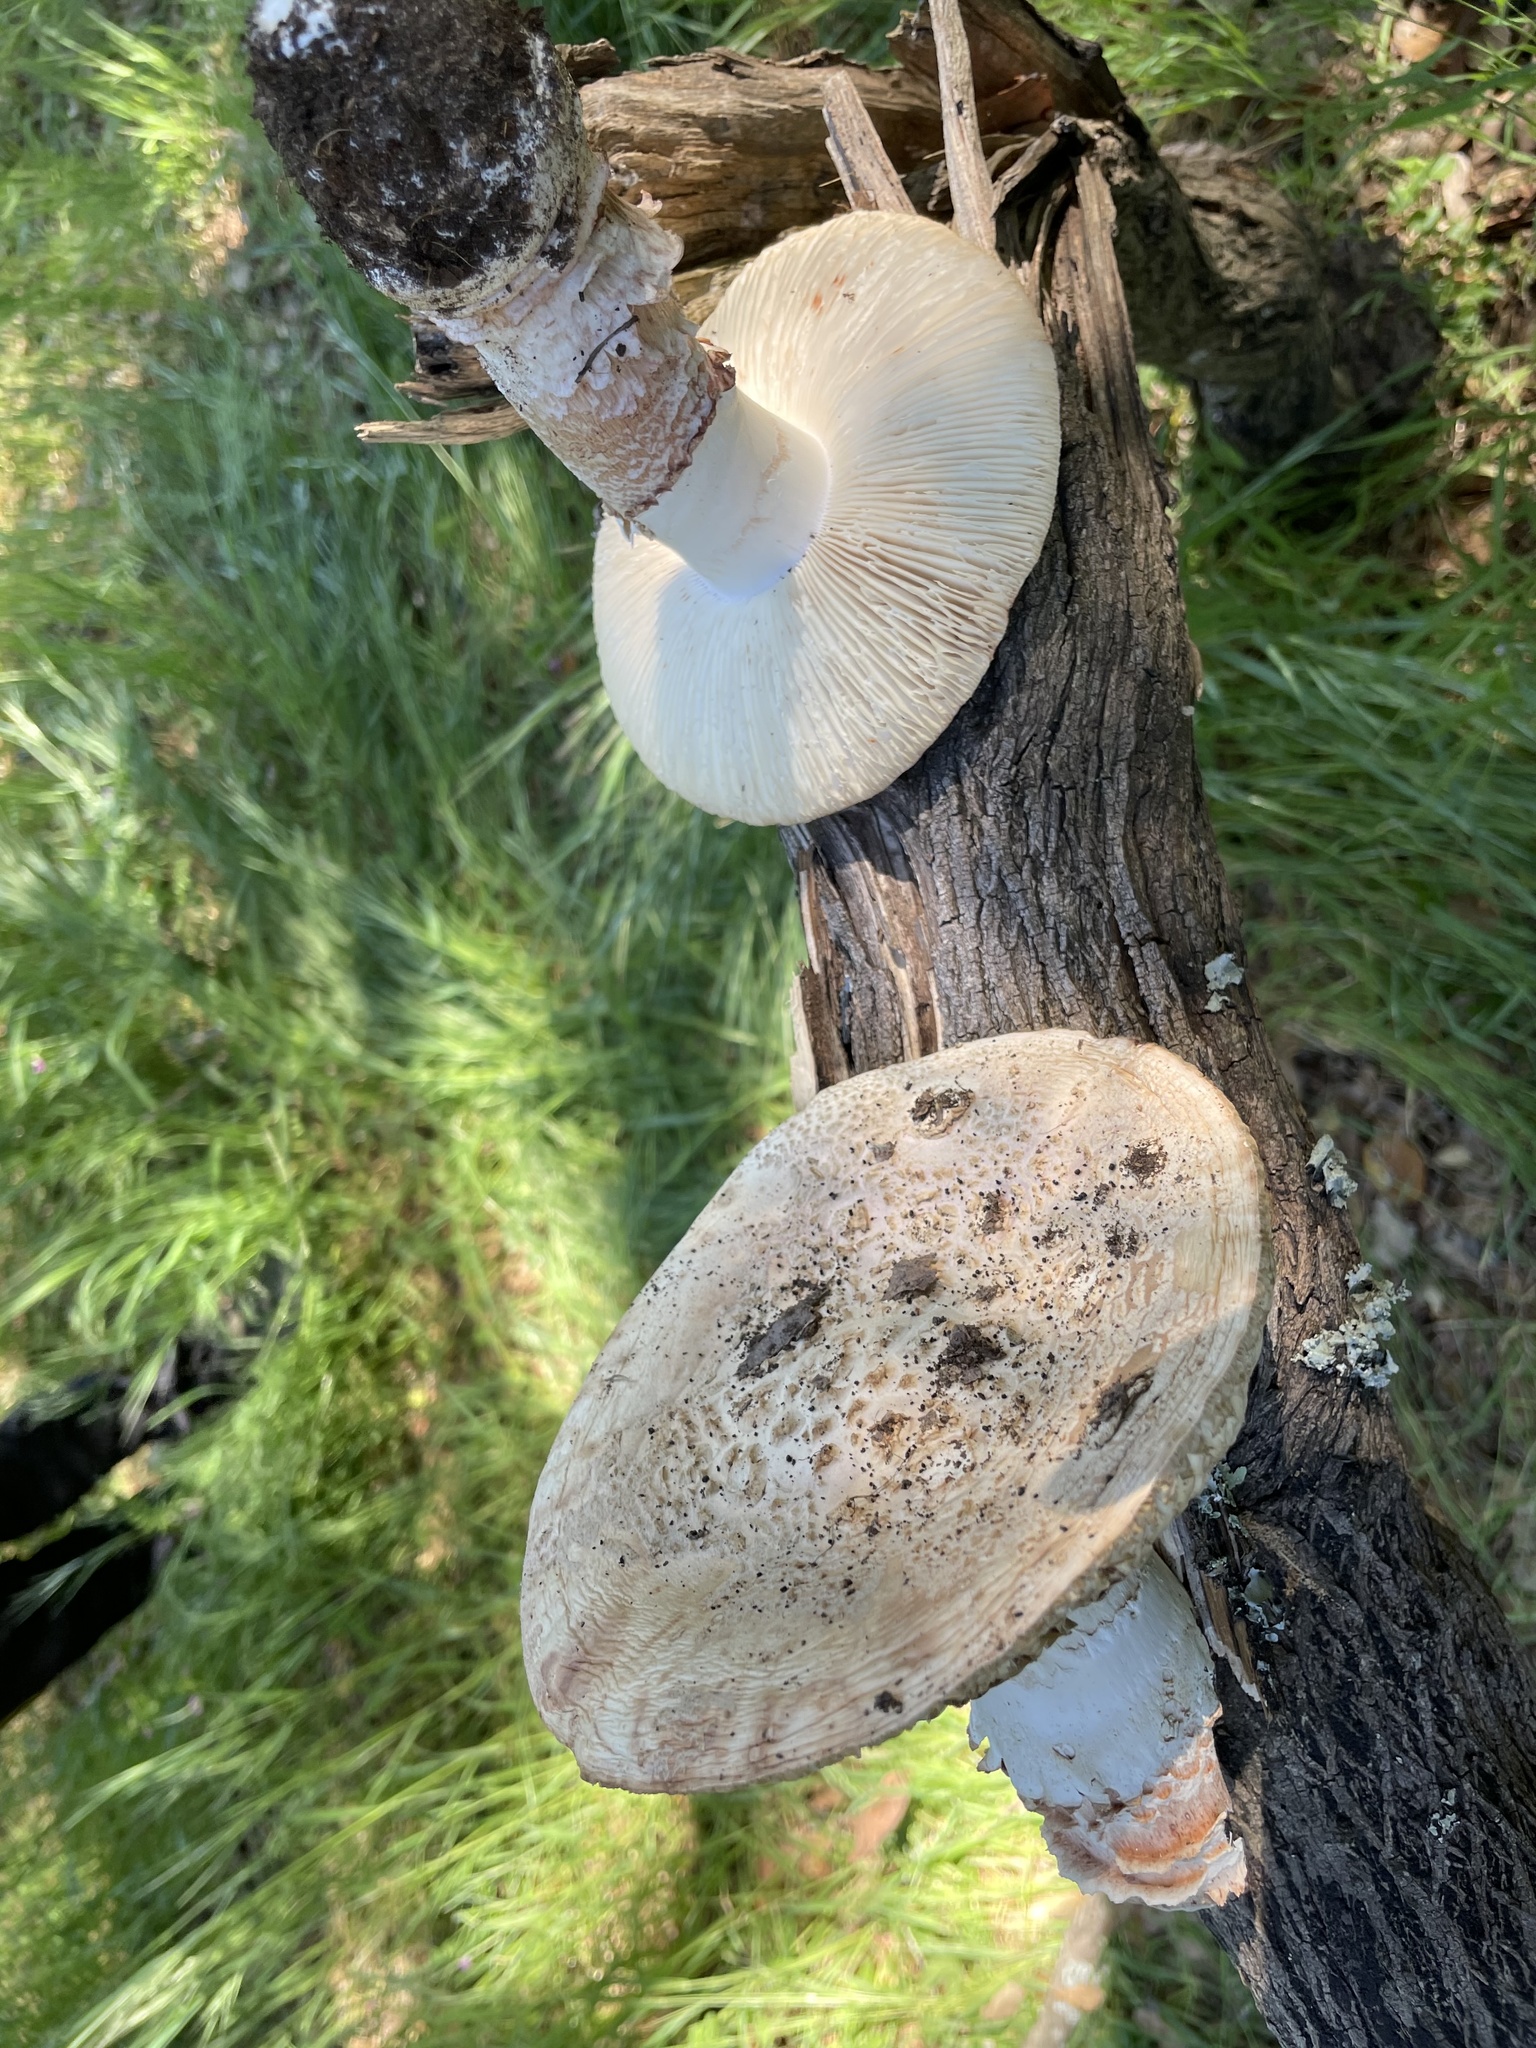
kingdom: Fungi
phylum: Basidiomycota
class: Agaricomycetes
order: Agaricales
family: Amanitaceae
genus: Amanita
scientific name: Amanita novinupta
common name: Blushing bride
